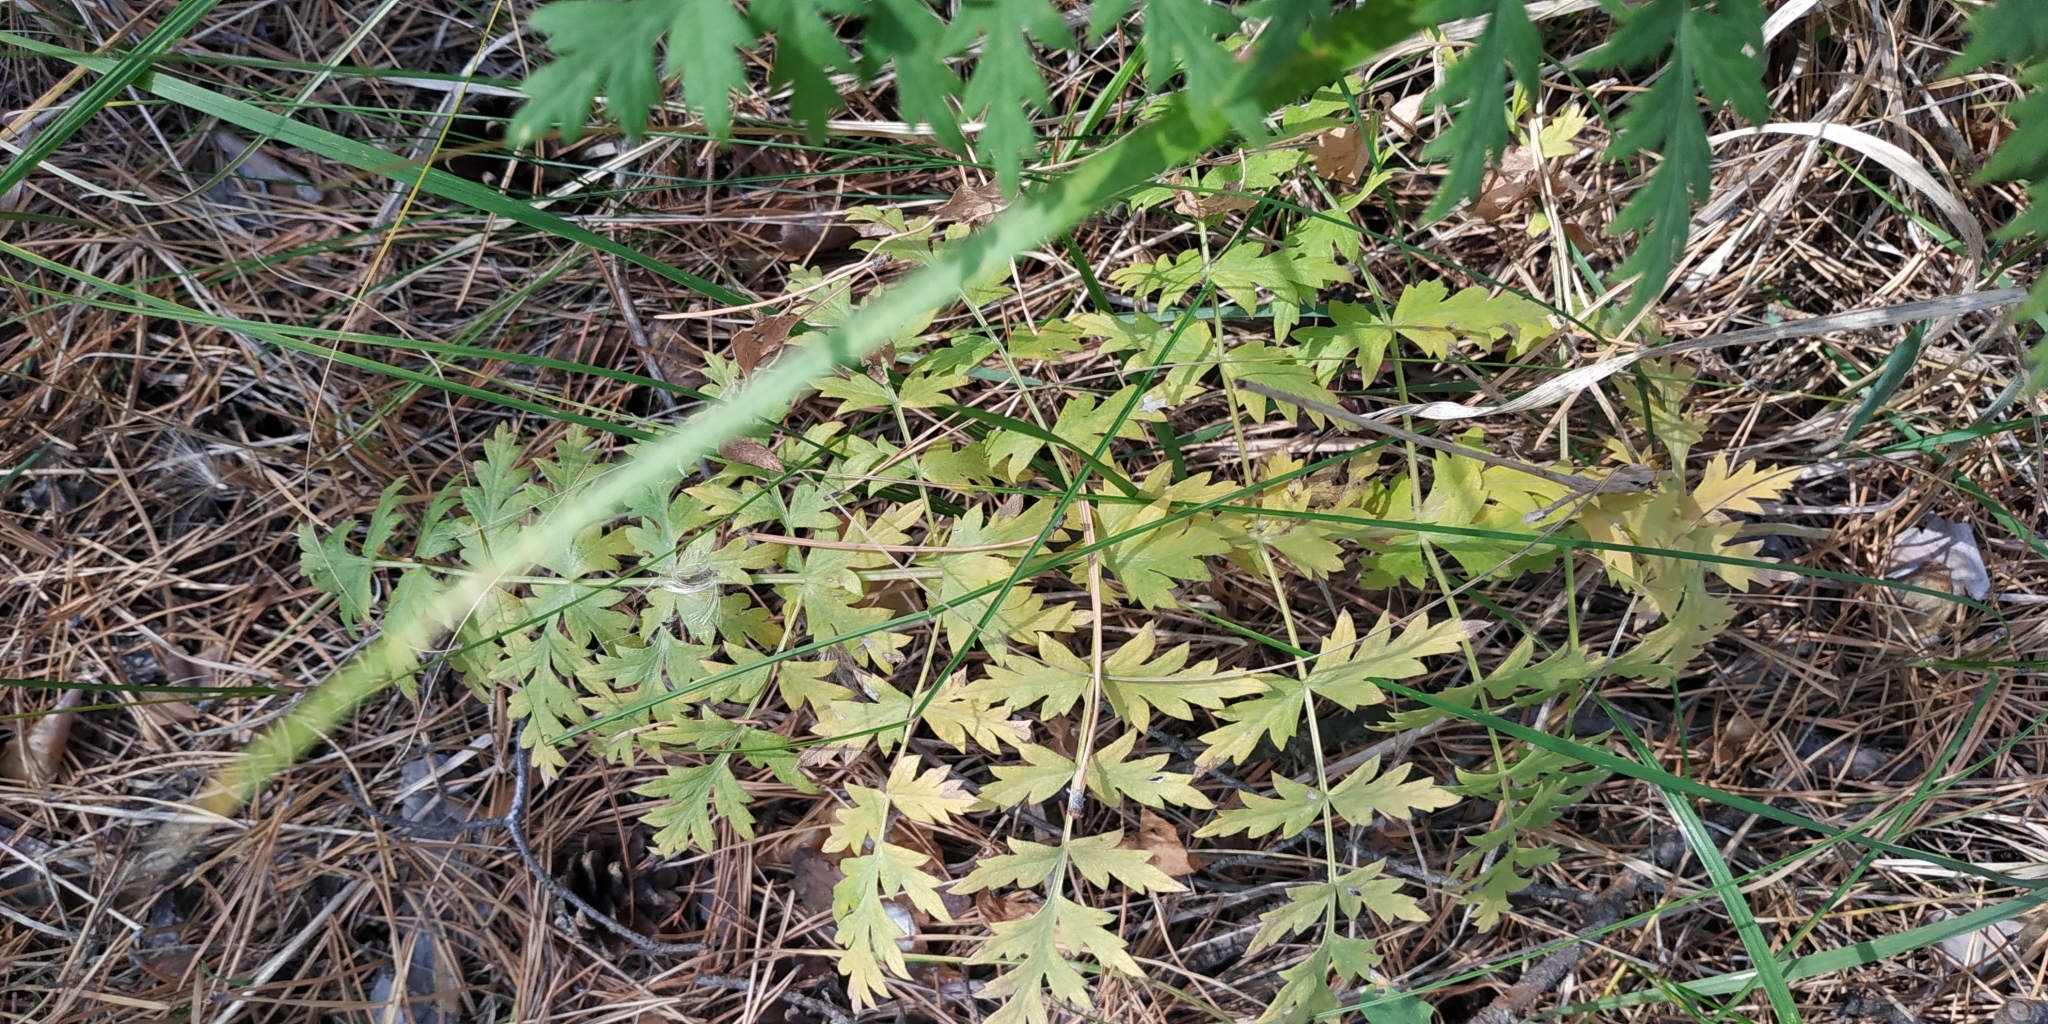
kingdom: Plantae
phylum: Tracheophyta
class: Magnoliopsida
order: Apiales
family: Apiaceae
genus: Seseli
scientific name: Seseli libanotis
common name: Mooncarrot
